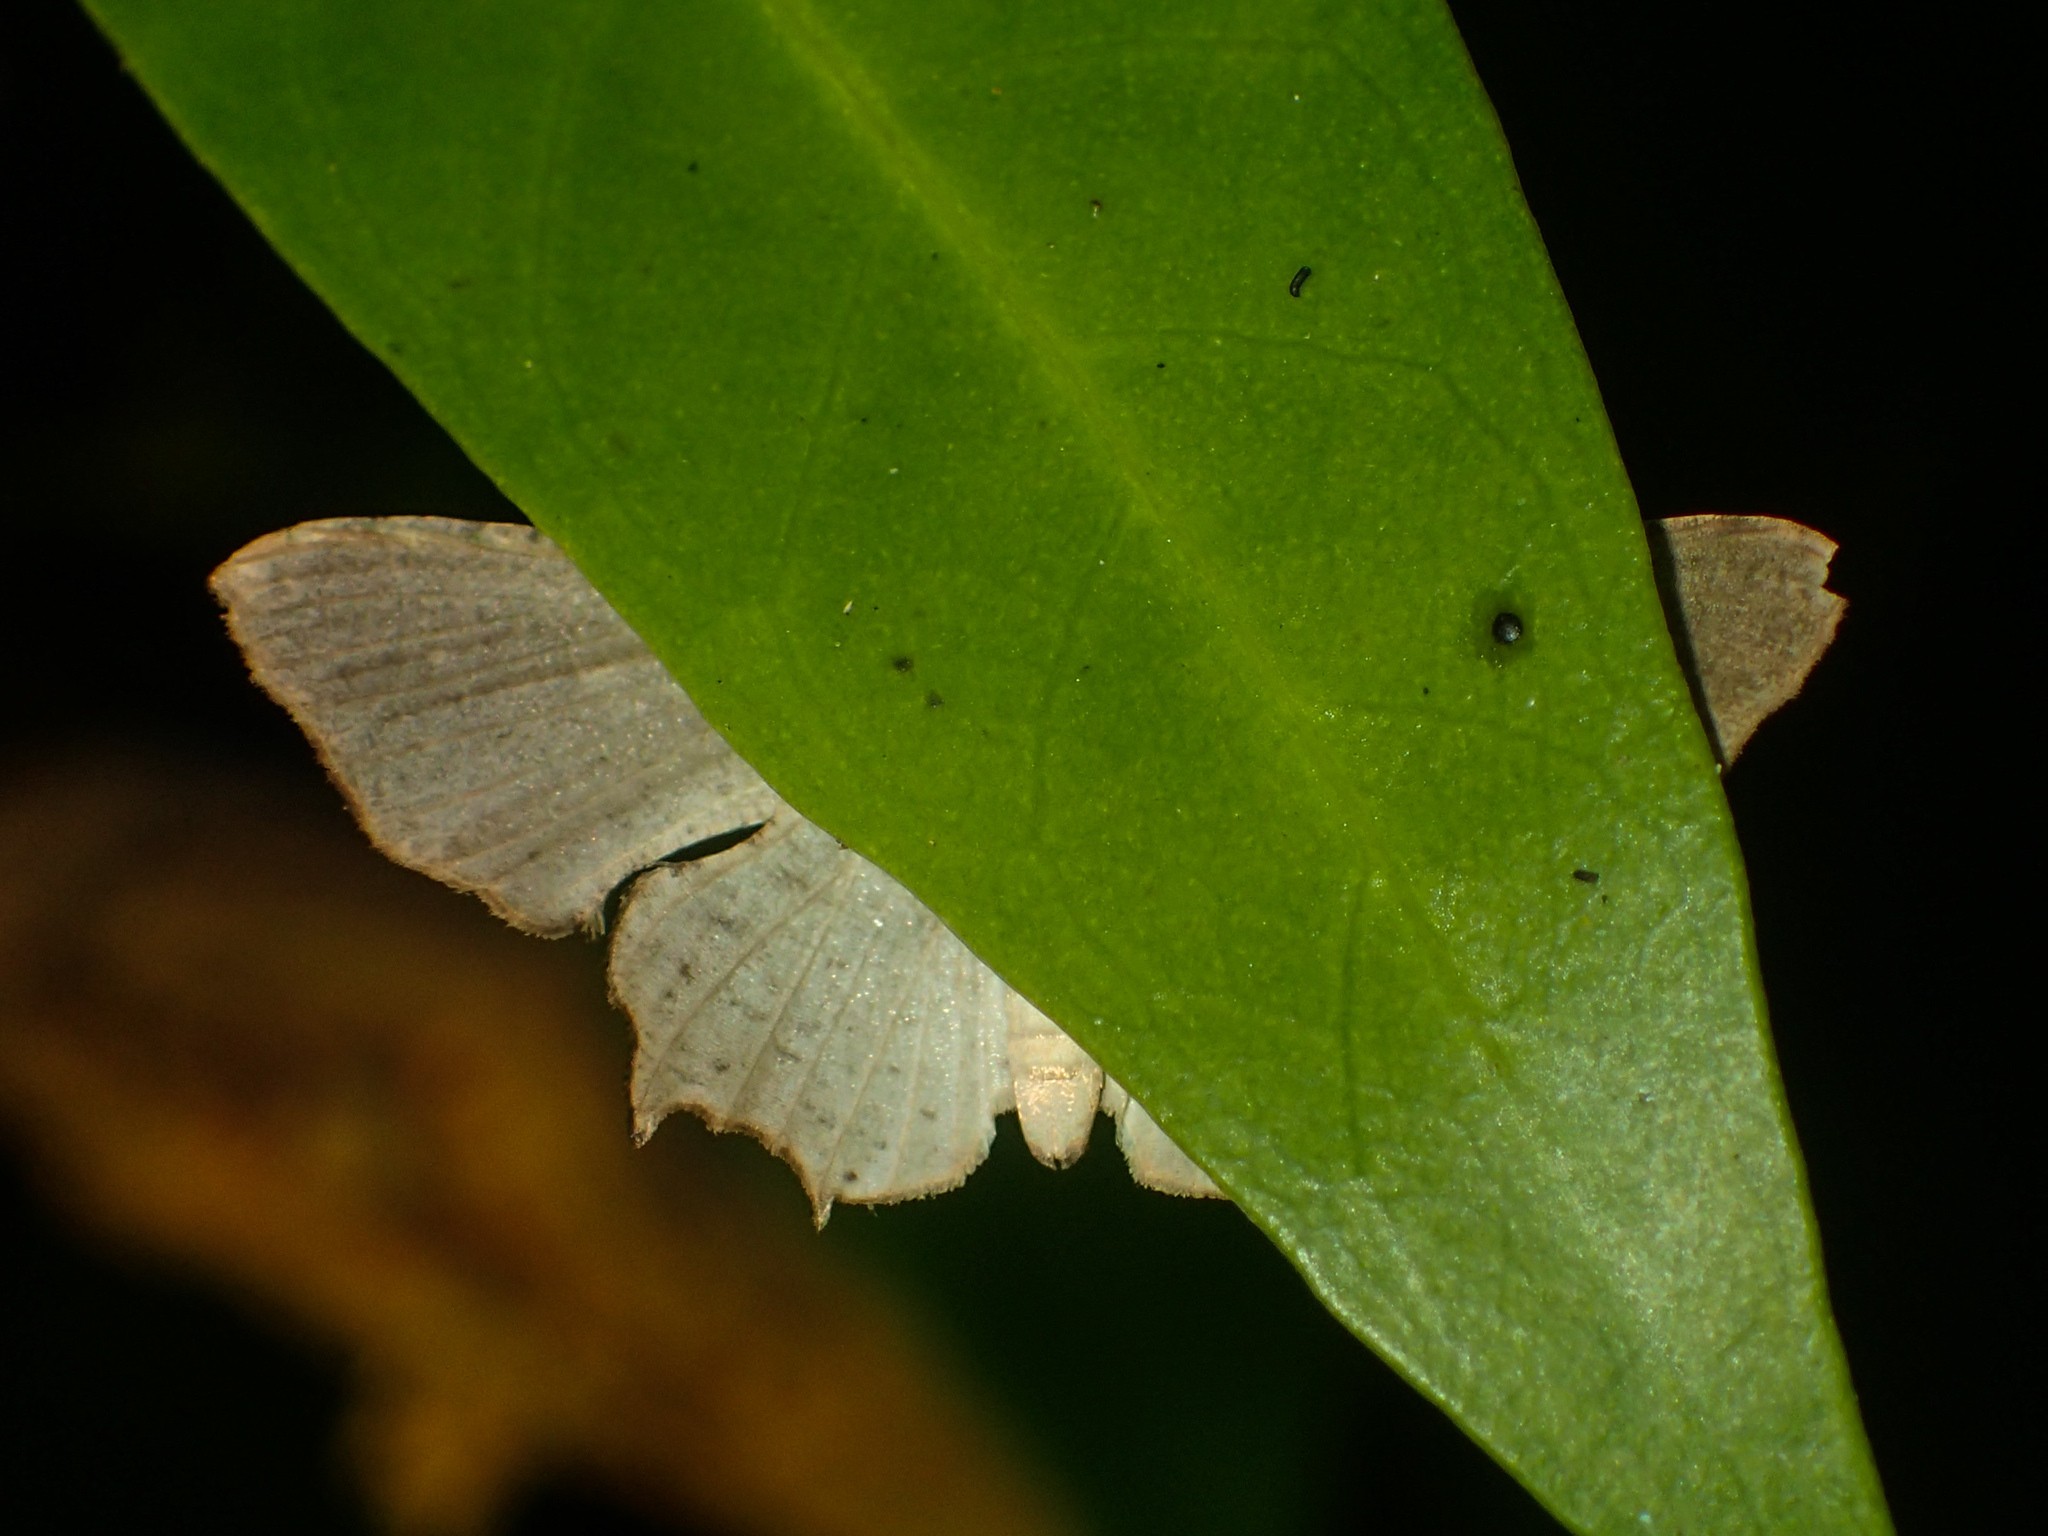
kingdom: Animalia
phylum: Arthropoda
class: Insecta
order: Lepidoptera
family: Uraniidae
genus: Dysaethria
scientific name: Dysaethria quadricaudata
